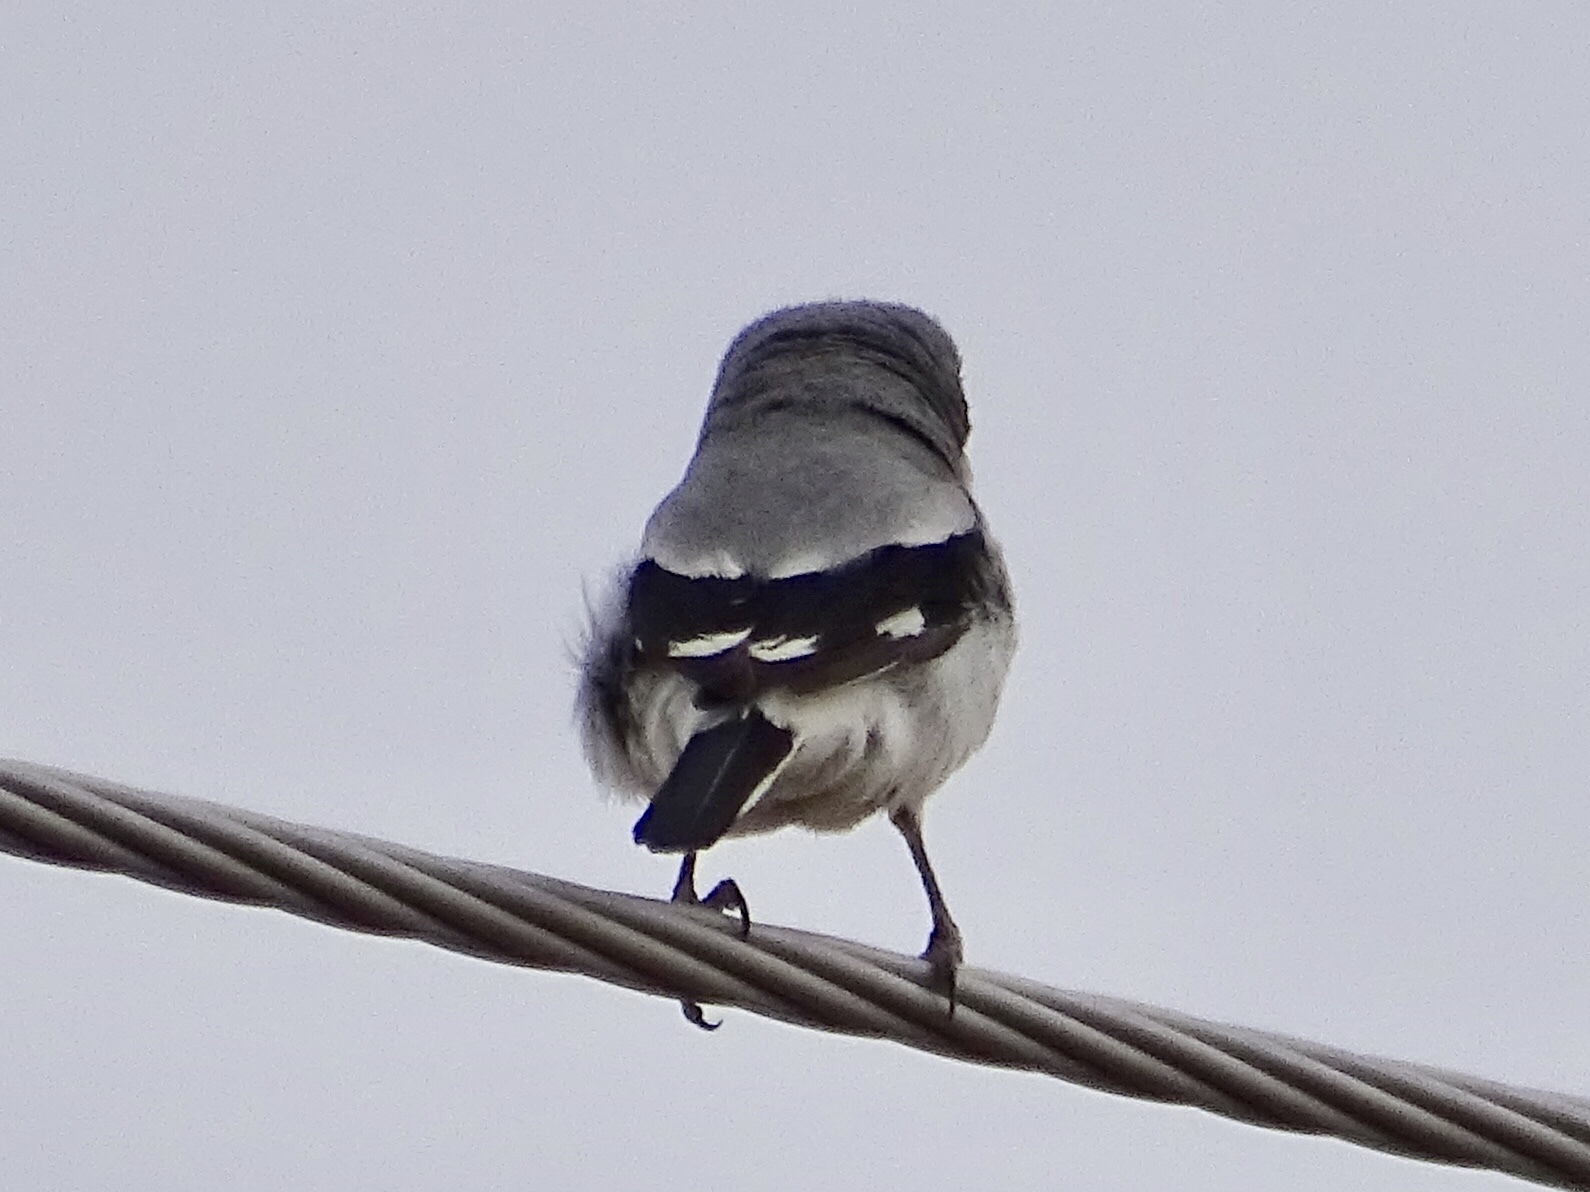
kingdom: Animalia
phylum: Chordata
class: Aves
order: Passeriformes
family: Laniidae
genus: Lanius
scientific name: Lanius ludovicianus
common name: Loggerhead shrike
